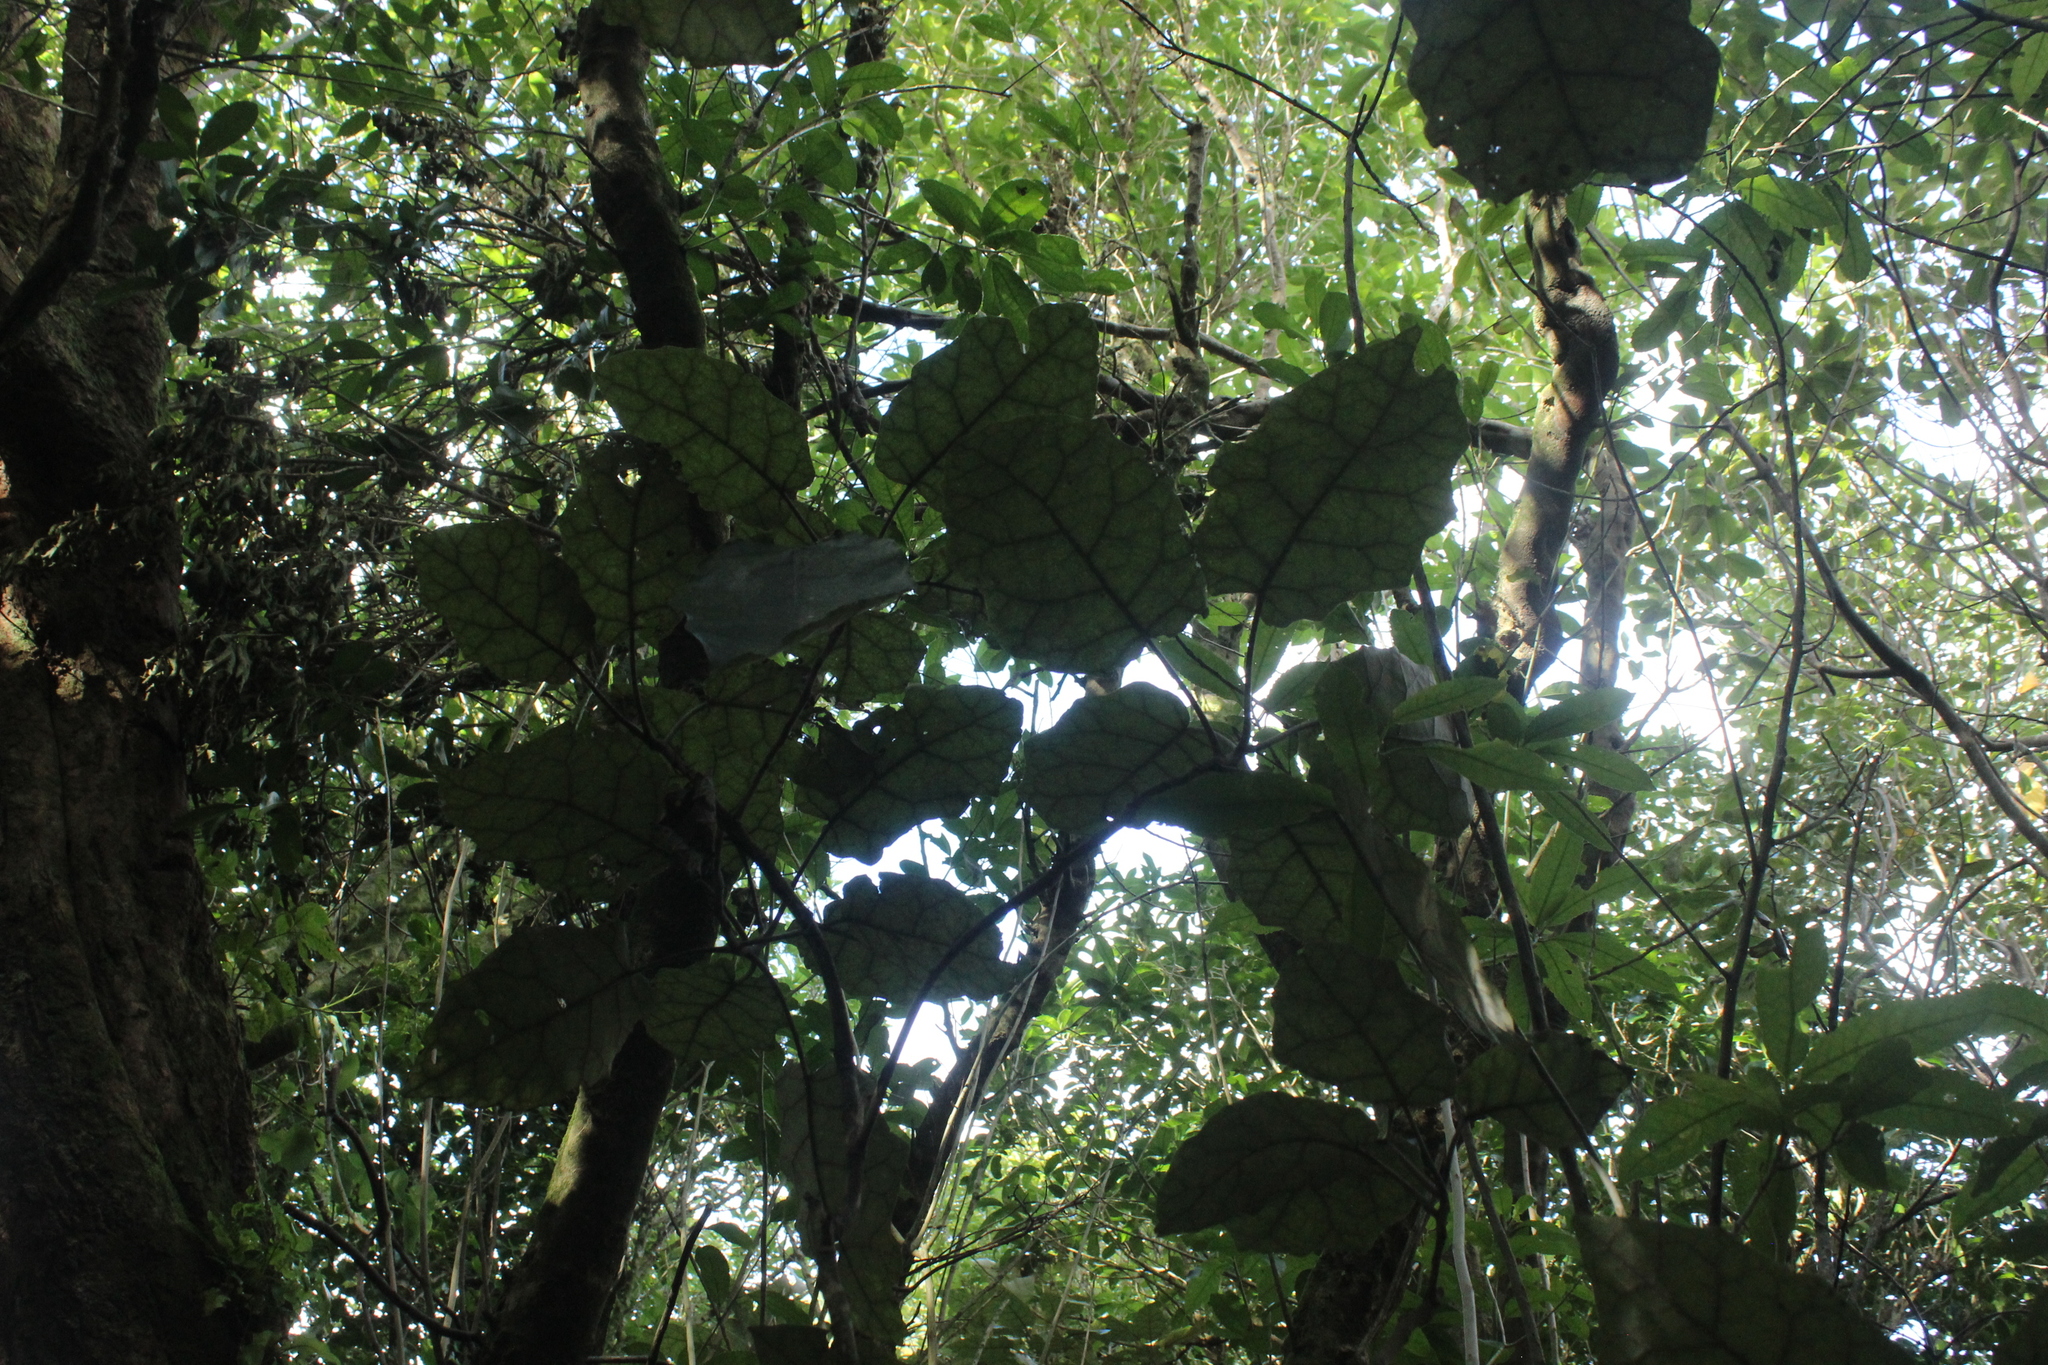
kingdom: Plantae
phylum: Tracheophyta
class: Magnoliopsida
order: Asterales
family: Asteraceae
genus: Brachyglottis
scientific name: Brachyglottis repanda
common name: Hedge ragwort
